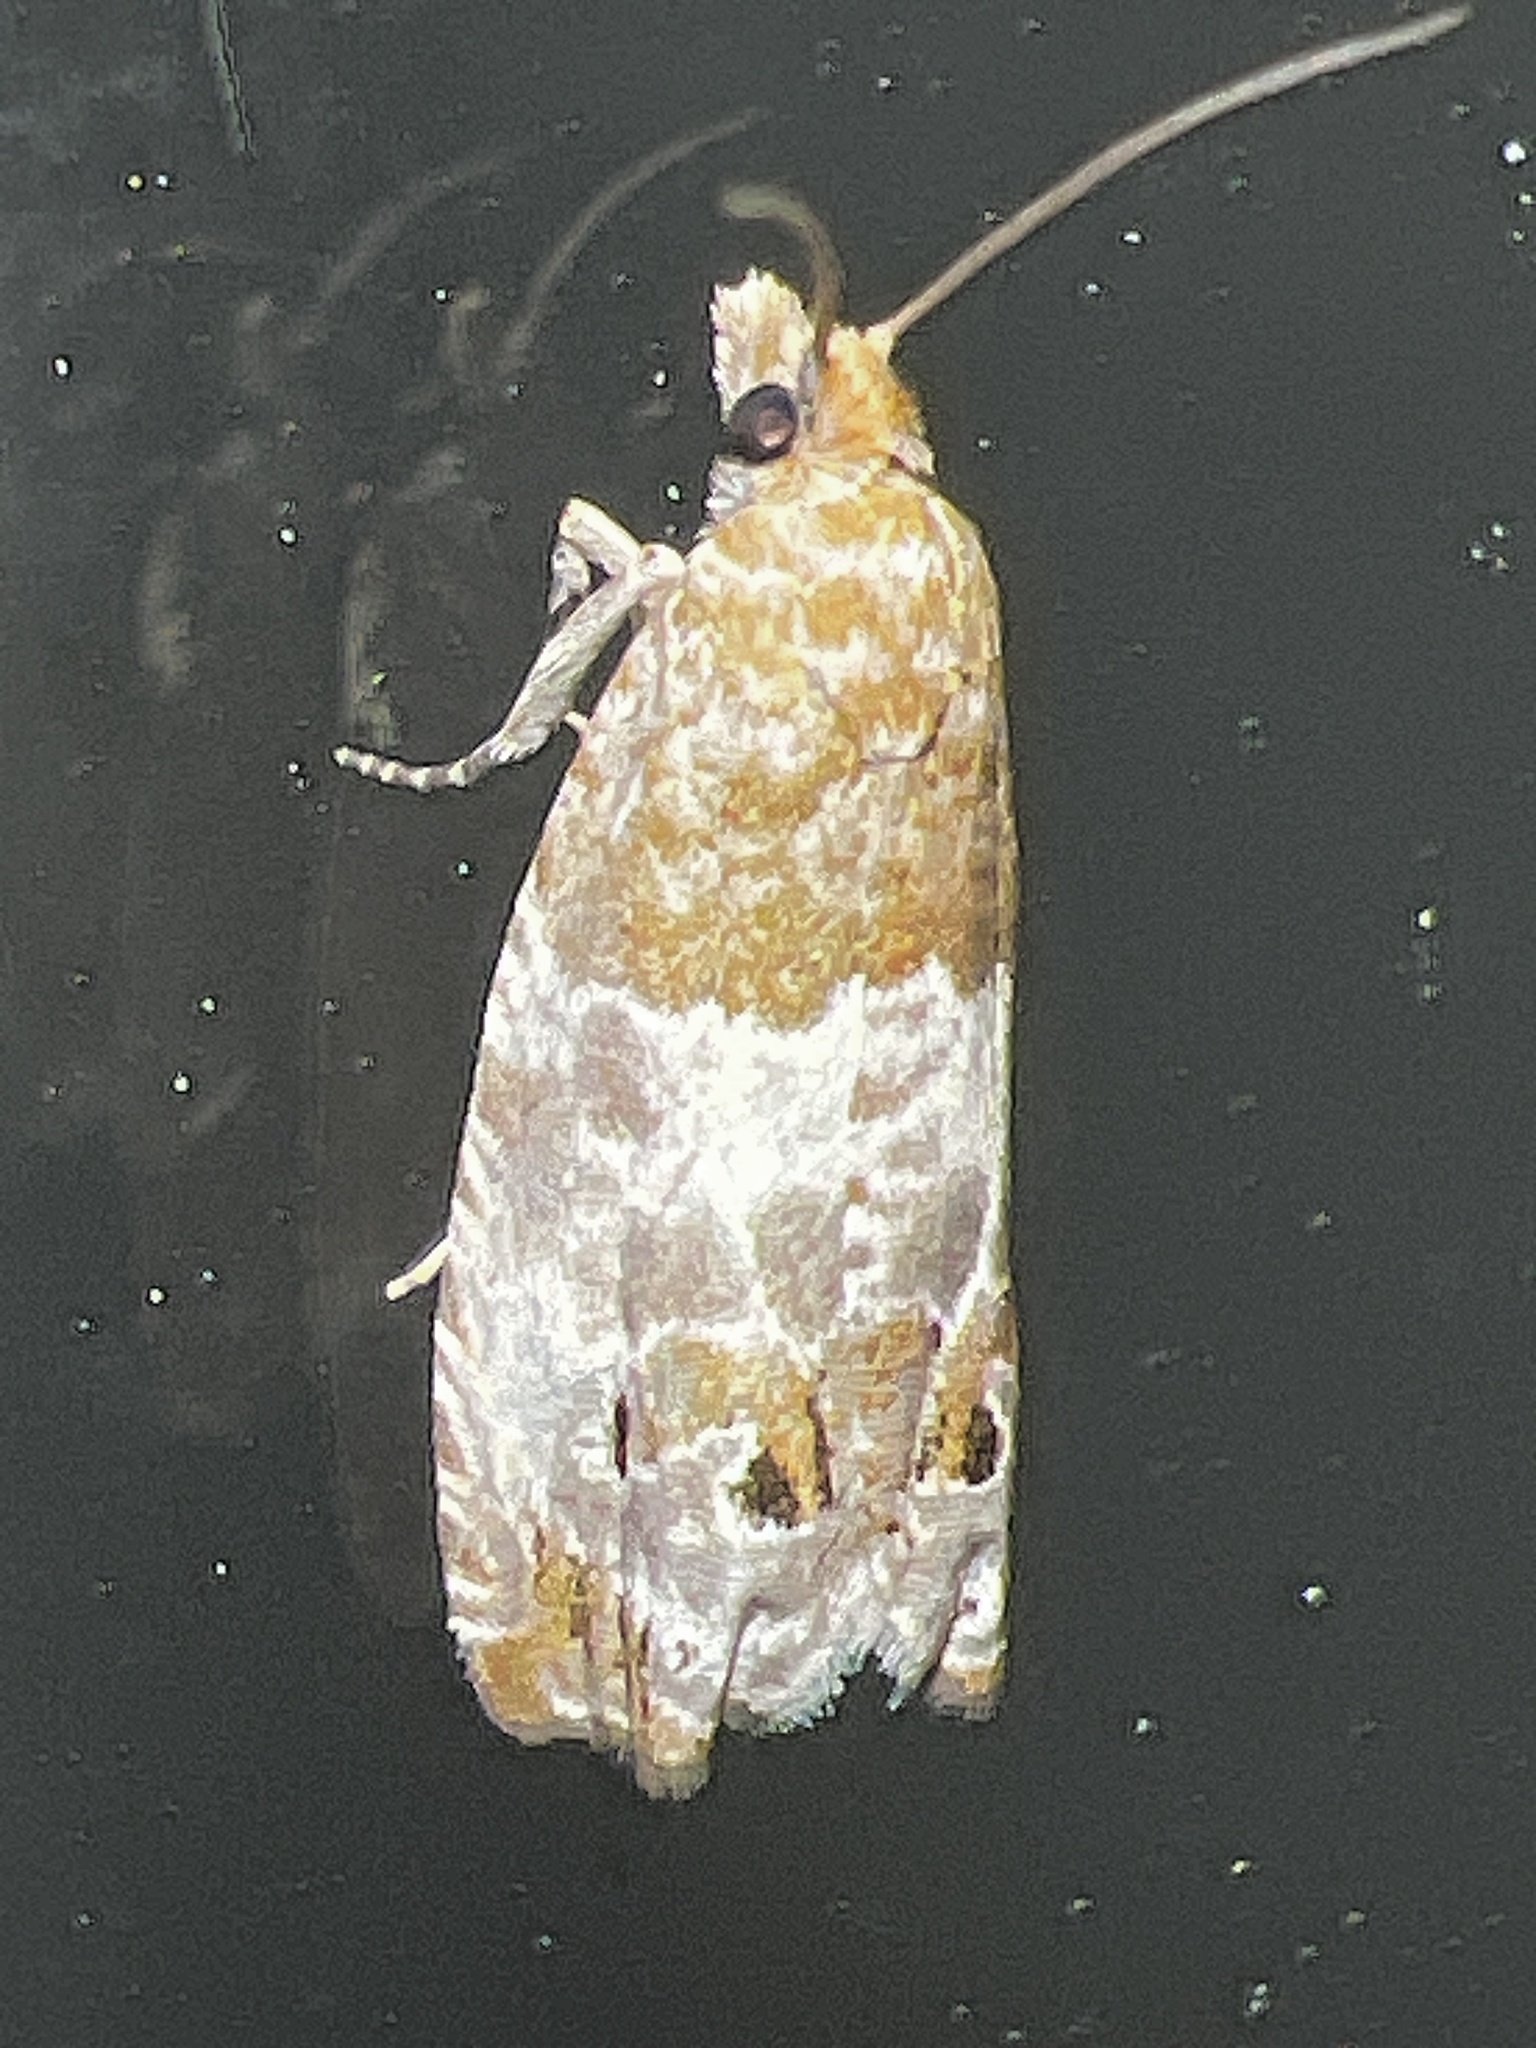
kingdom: Animalia
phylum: Arthropoda
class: Insecta
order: Lepidoptera
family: Tortricidae
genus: Notocelia
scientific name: Notocelia rosaecolana
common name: Common rose bell
